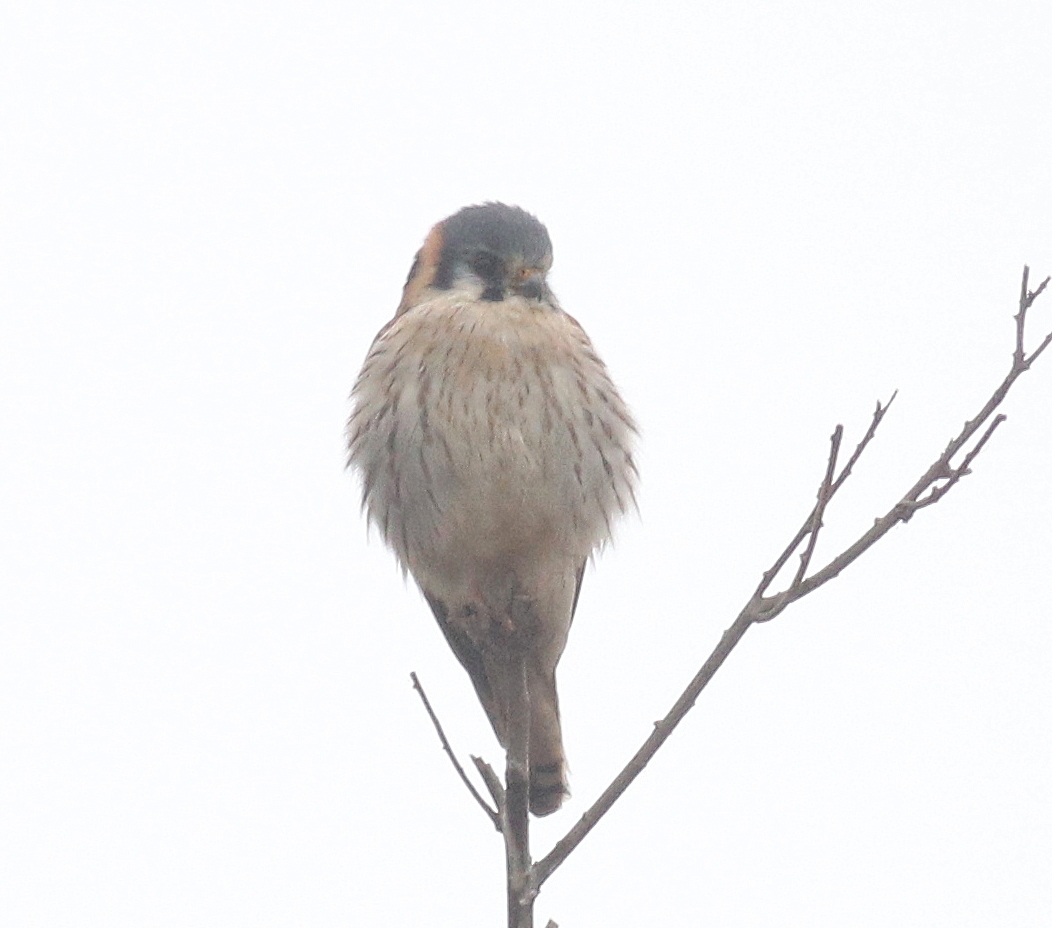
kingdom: Animalia
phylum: Chordata
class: Aves
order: Falconiformes
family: Falconidae
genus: Falco
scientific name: Falco sparverius
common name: American kestrel
